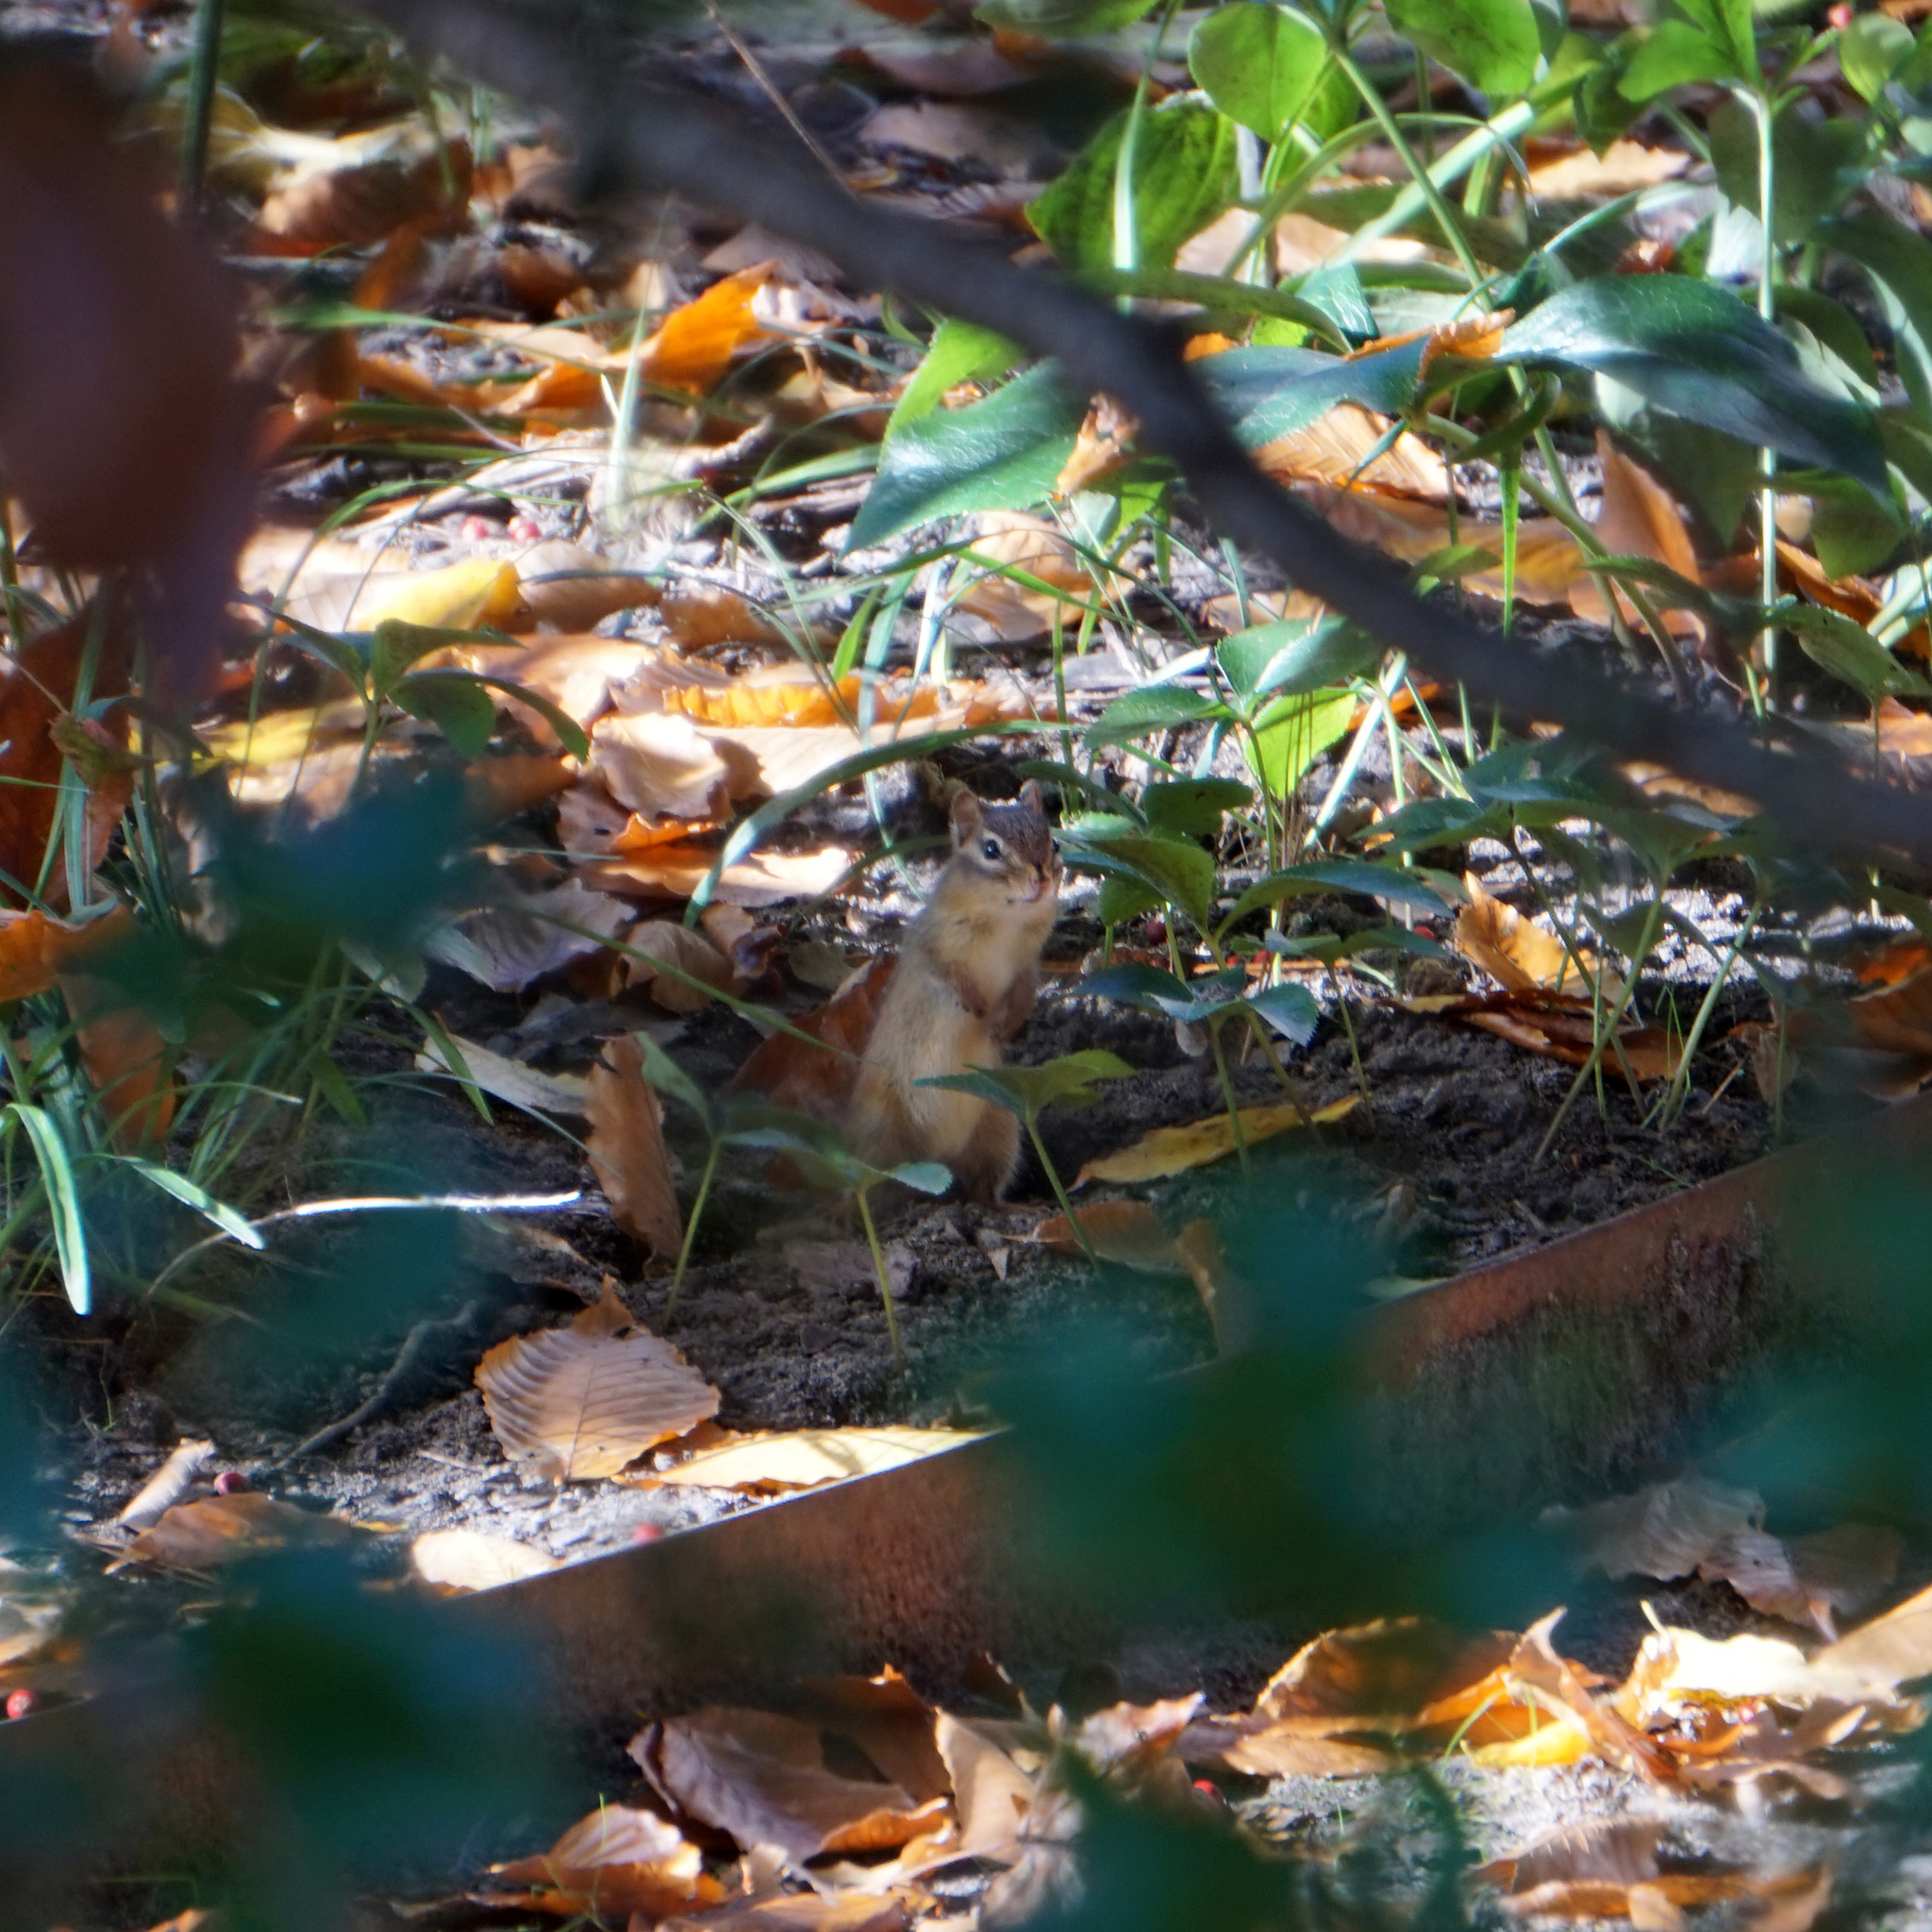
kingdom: Animalia
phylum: Chordata
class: Mammalia
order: Rodentia
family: Sciuridae
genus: Tamias
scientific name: Tamias striatus
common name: Eastern chipmunk
